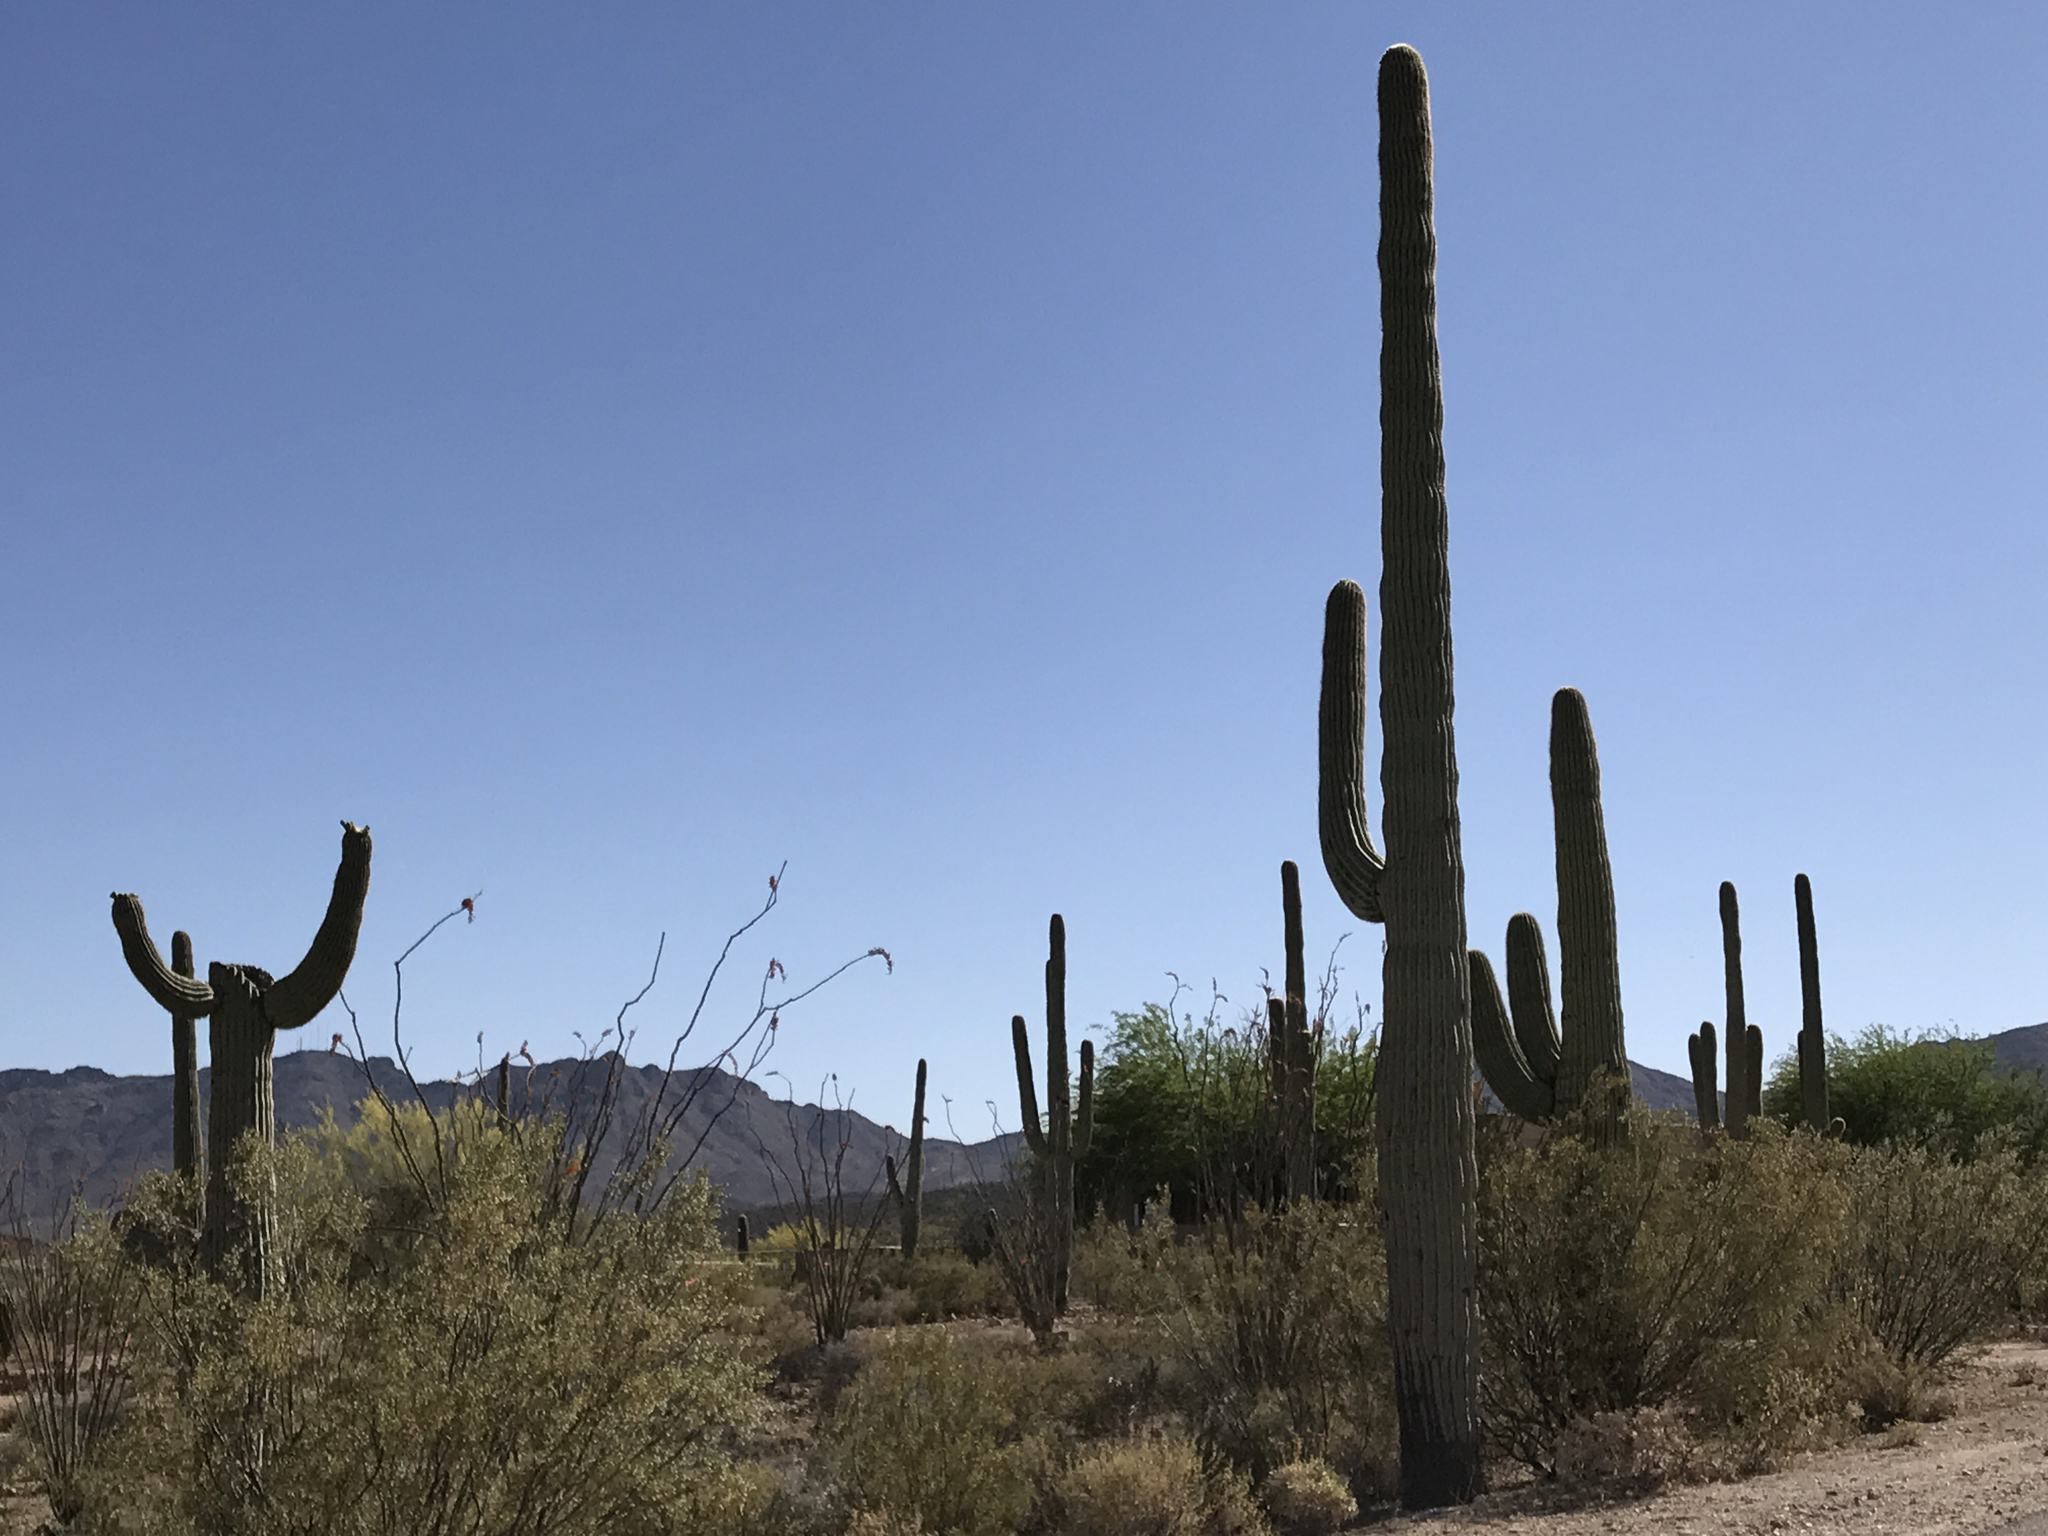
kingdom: Plantae
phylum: Tracheophyta
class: Magnoliopsida
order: Caryophyllales
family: Cactaceae
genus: Carnegiea
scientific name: Carnegiea gigantea
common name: Saguaro
